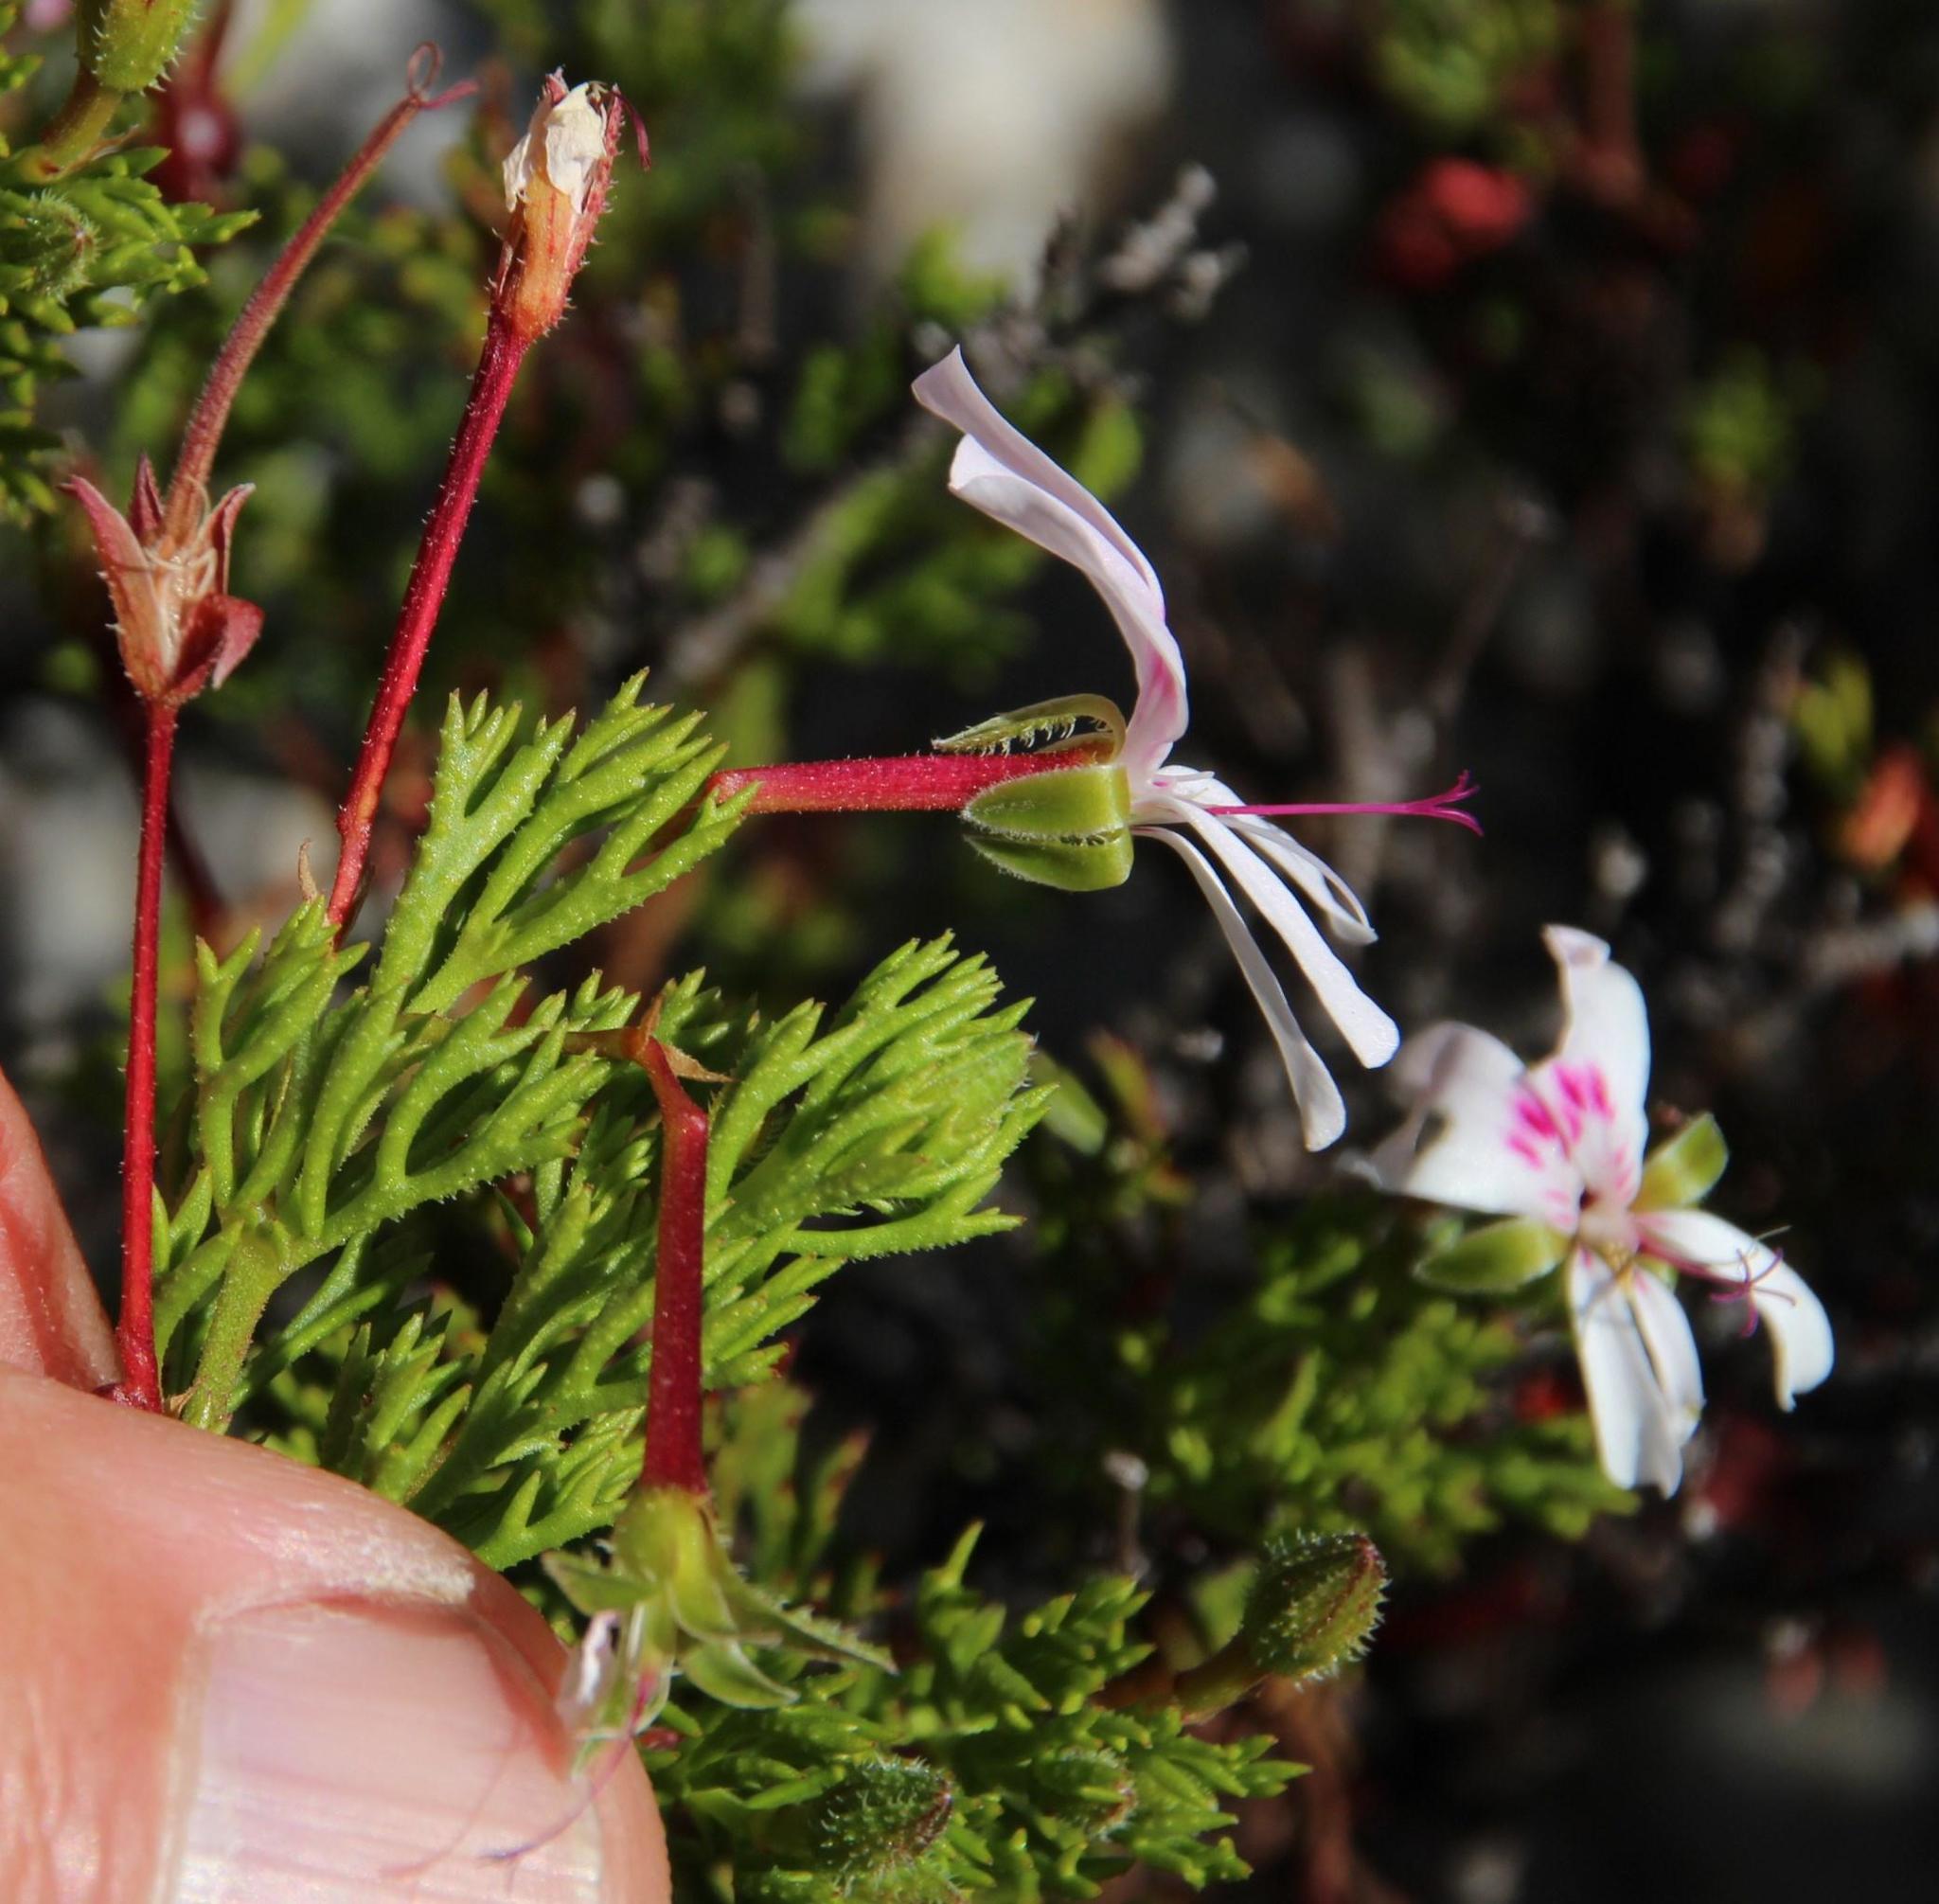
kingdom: Plantae
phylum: Tracheophyta
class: Magnoliopsida
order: Geraniales
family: Geraniaceae
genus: Pelargonium
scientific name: Pelargonium fruticosum
